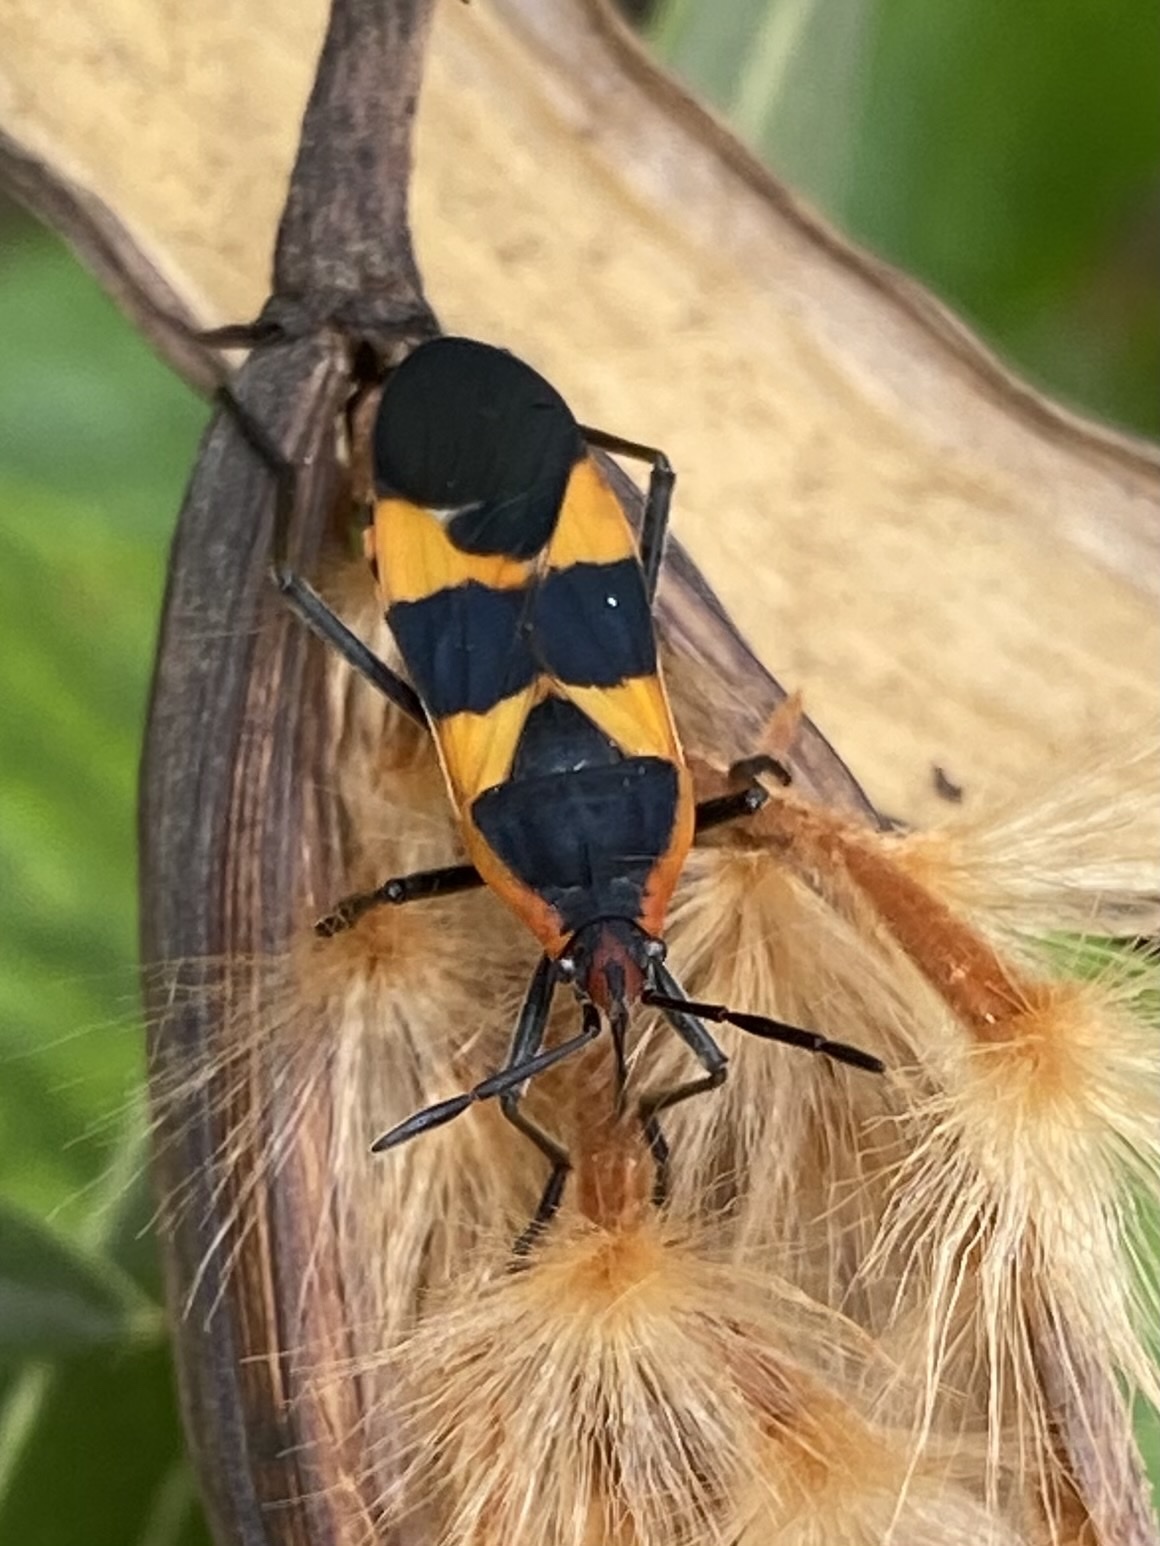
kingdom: Animalia
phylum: Arthropoda
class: Insecta
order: Hemiptera
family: Lygaeidae
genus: Oncopeltus
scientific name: Oncopeltus fasciatus
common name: Large milkweed bug
